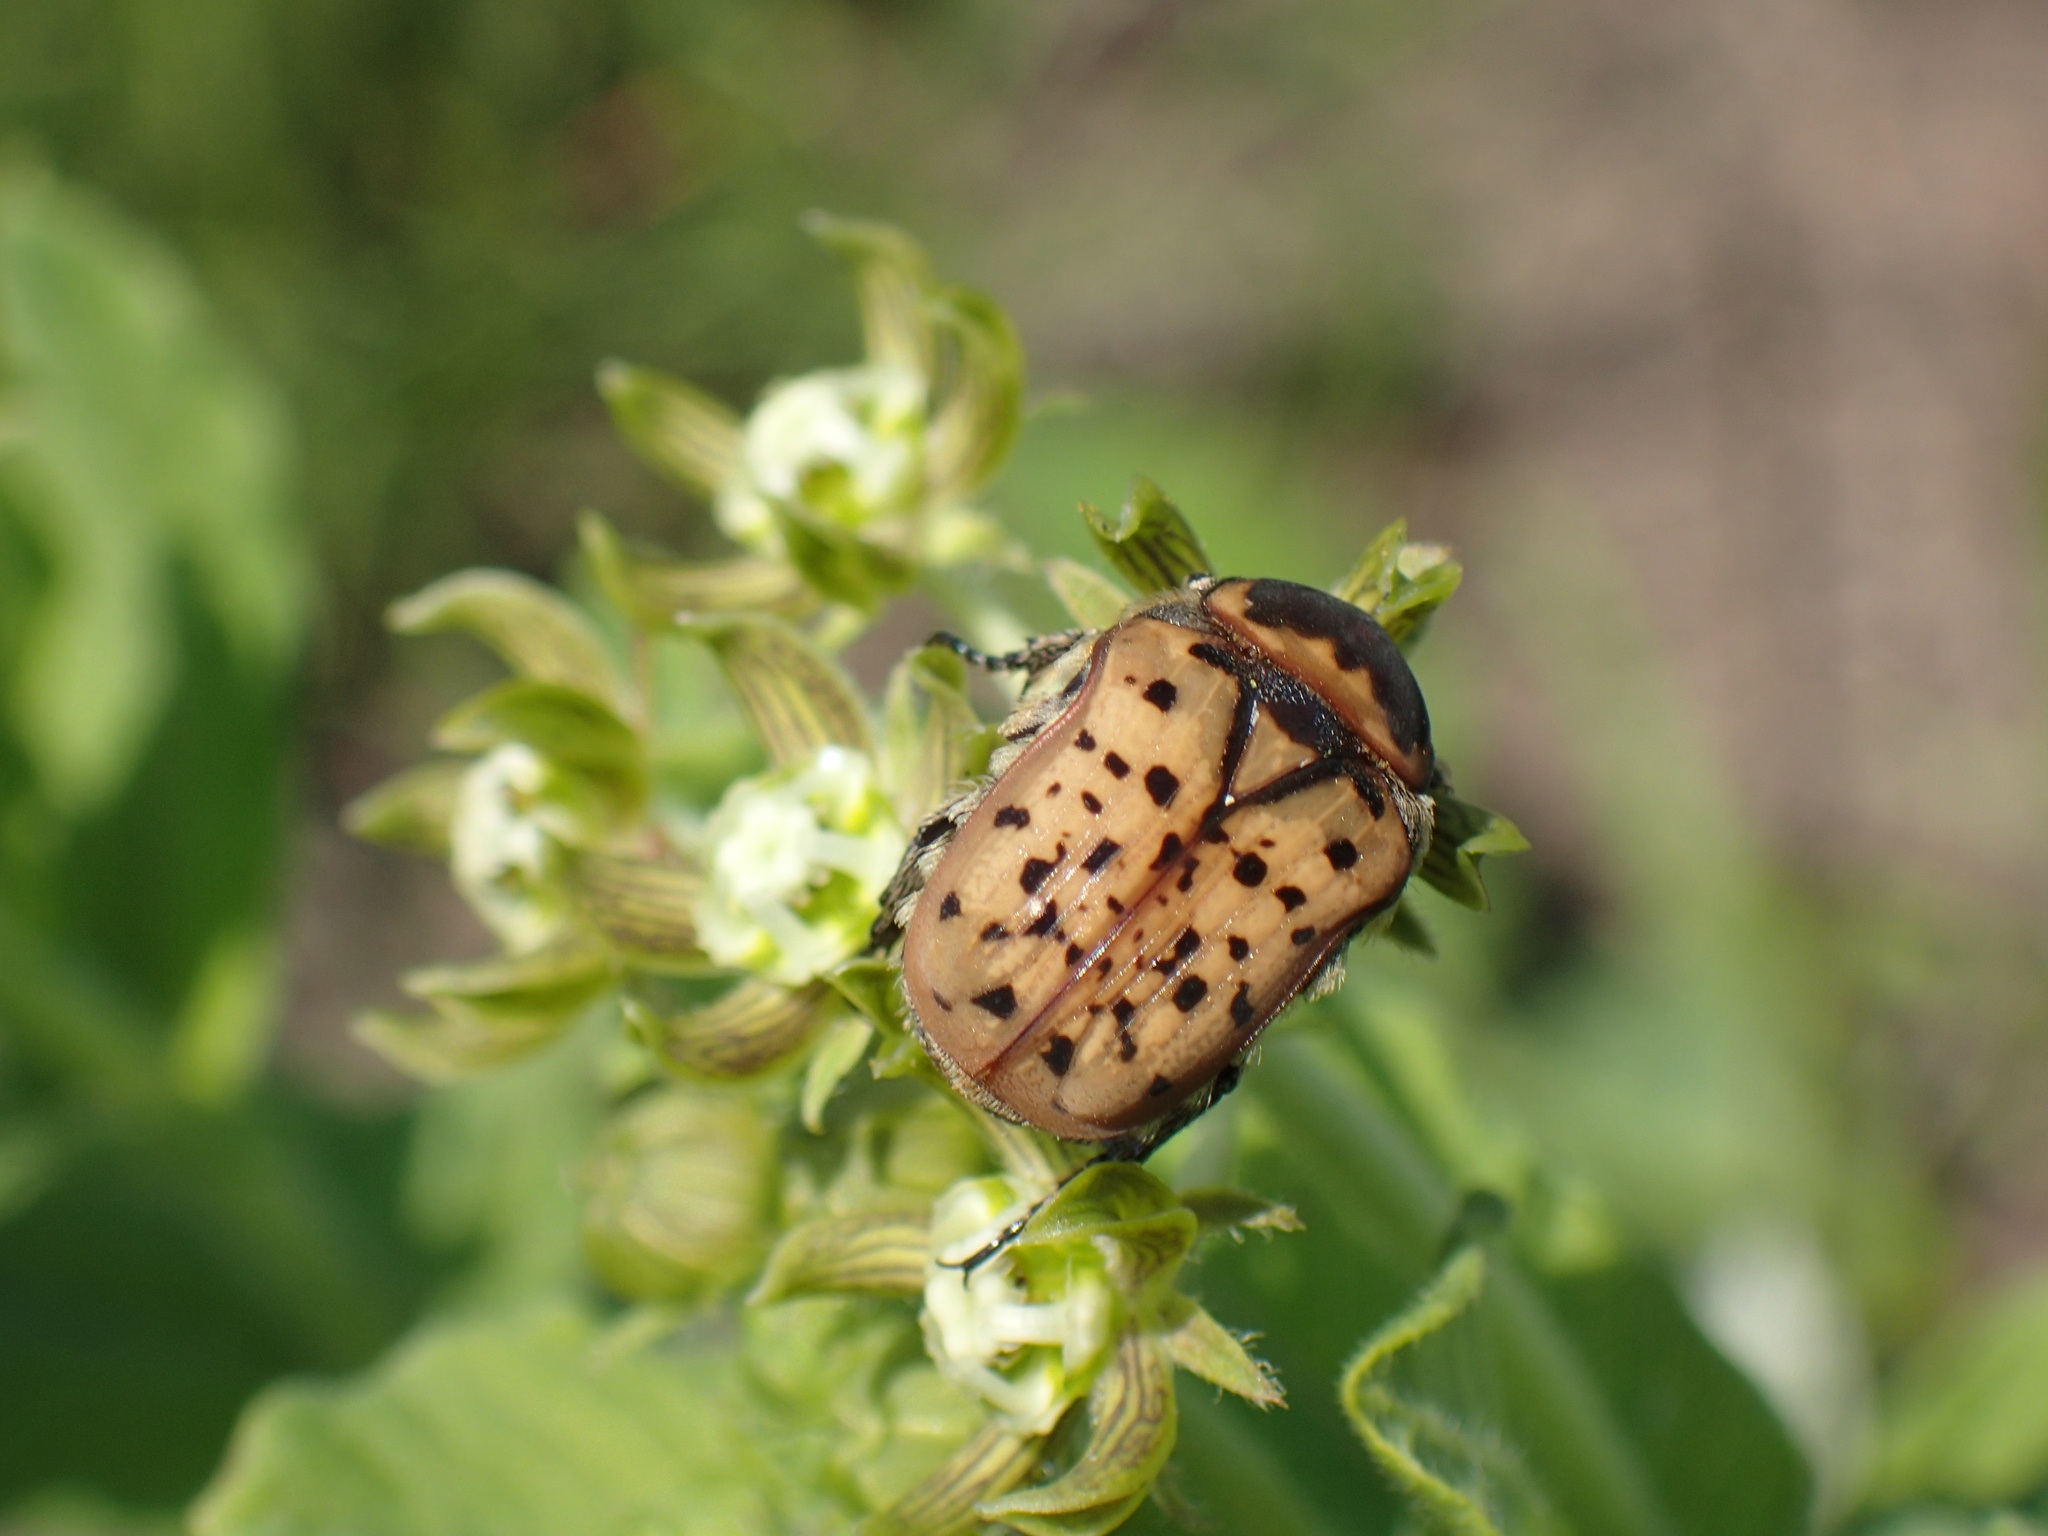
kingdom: Animalia
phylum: Arthropoda
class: Insecta
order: Coleoptera
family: Scarabaeidae
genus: Atrichelaphinis
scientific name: Atrichelaphinis tigrina
